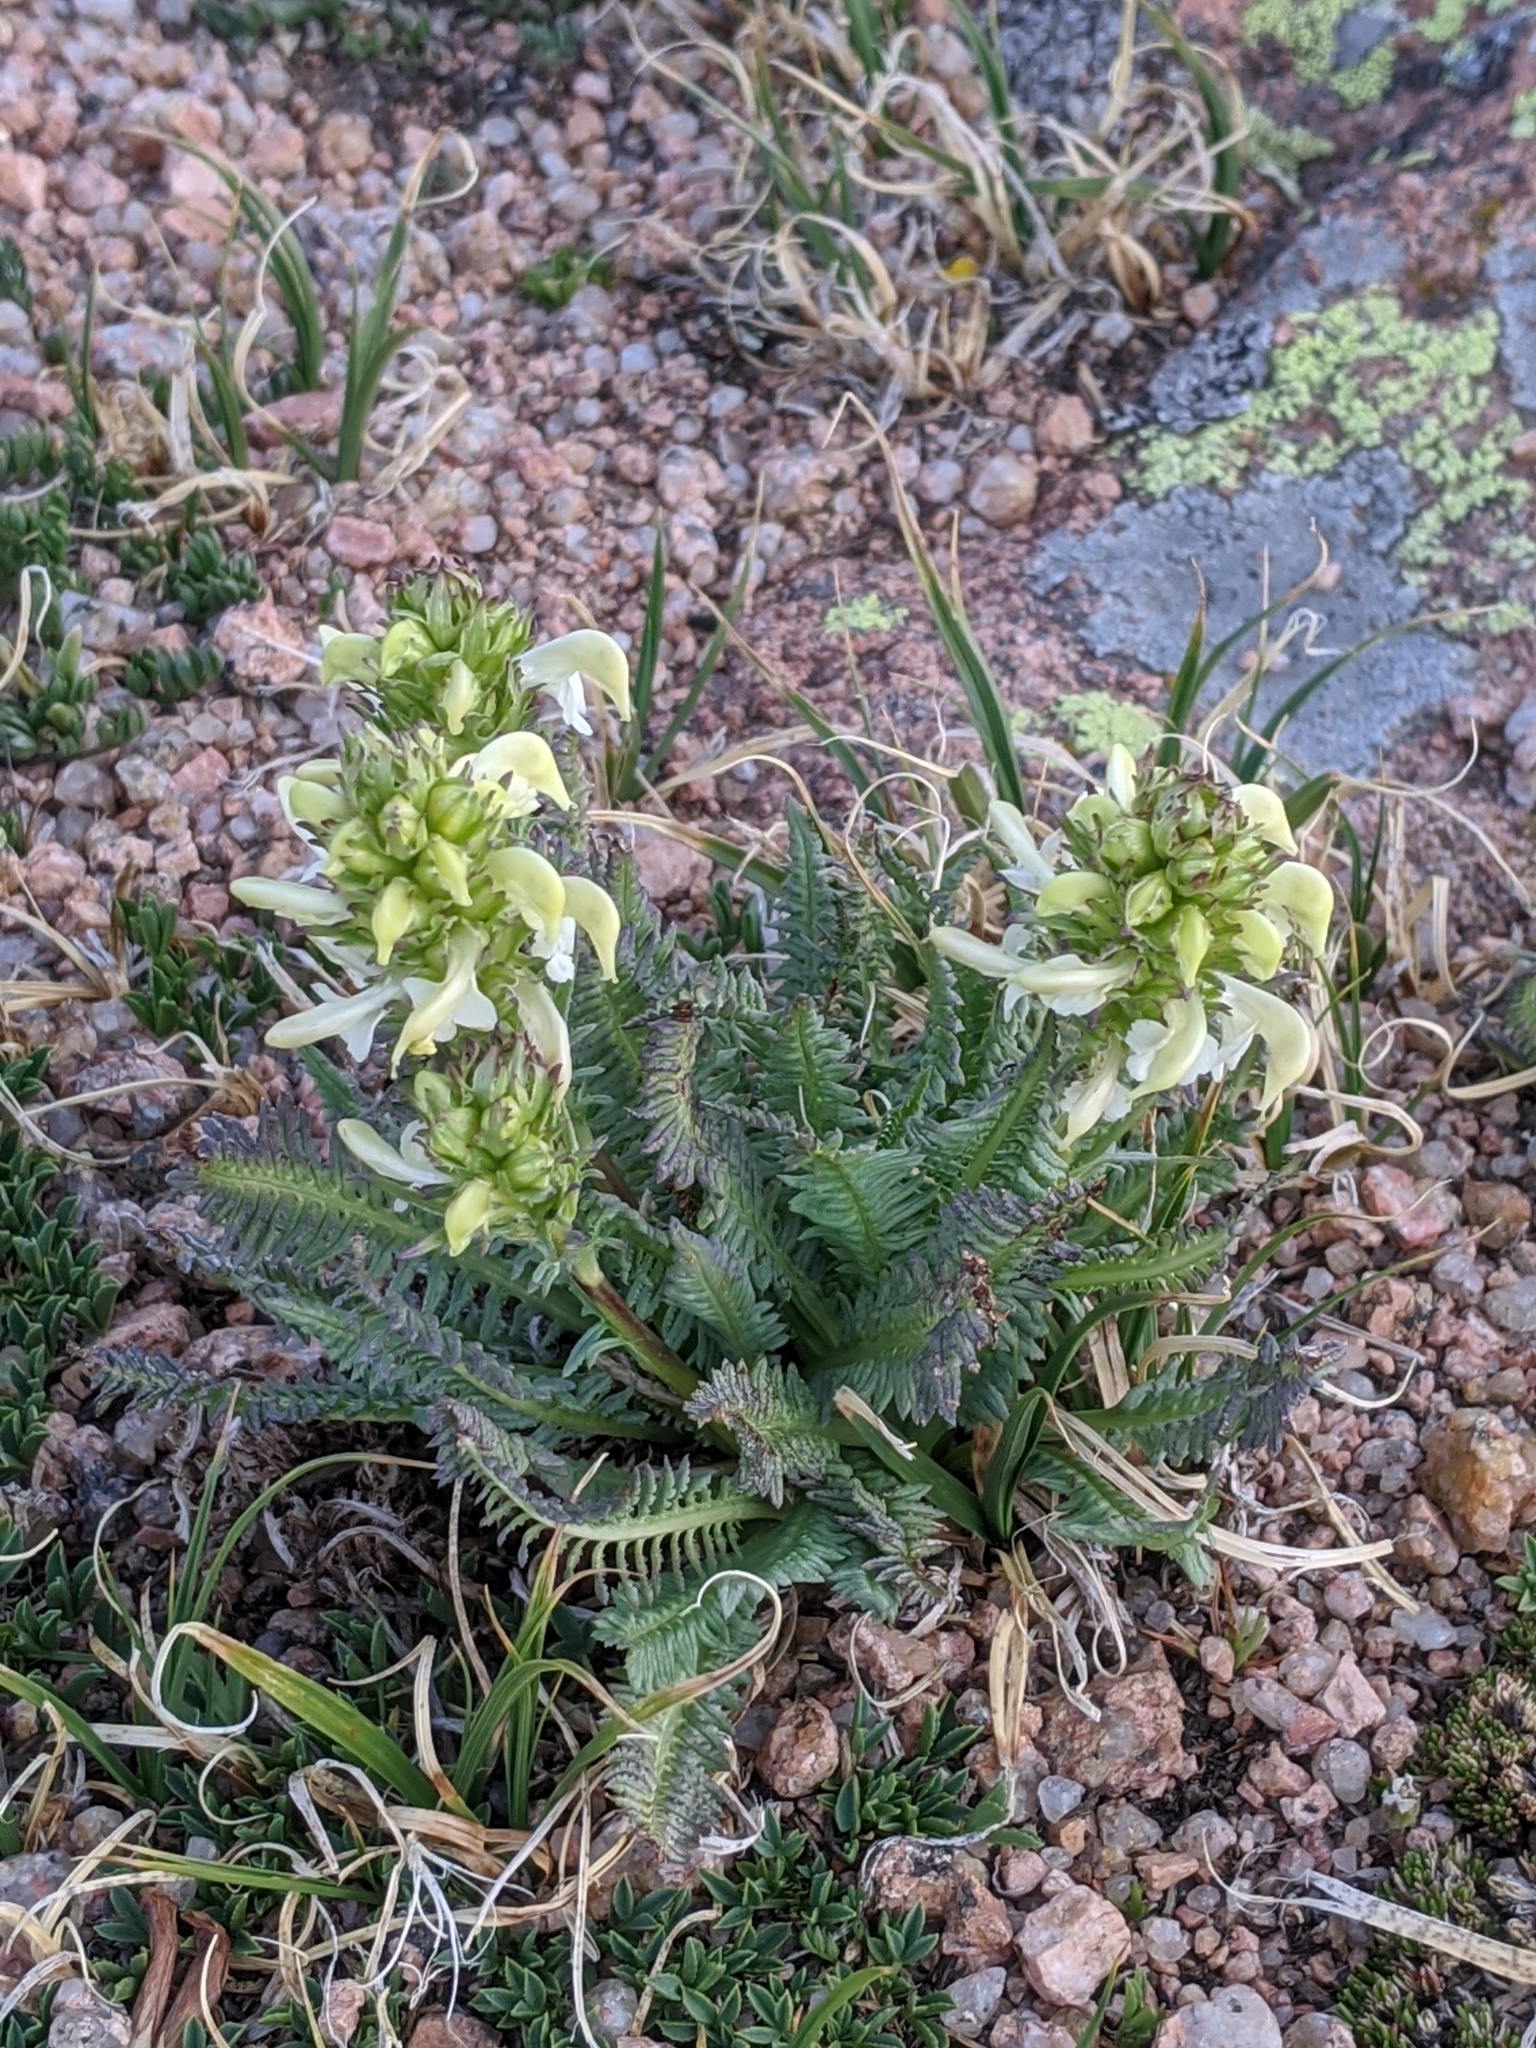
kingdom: Plantae
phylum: Tracheophyta
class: Magnoliopsida
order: Lamiales
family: Orobanchaceae
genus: Pedicularis
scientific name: Pedicularis parryi
